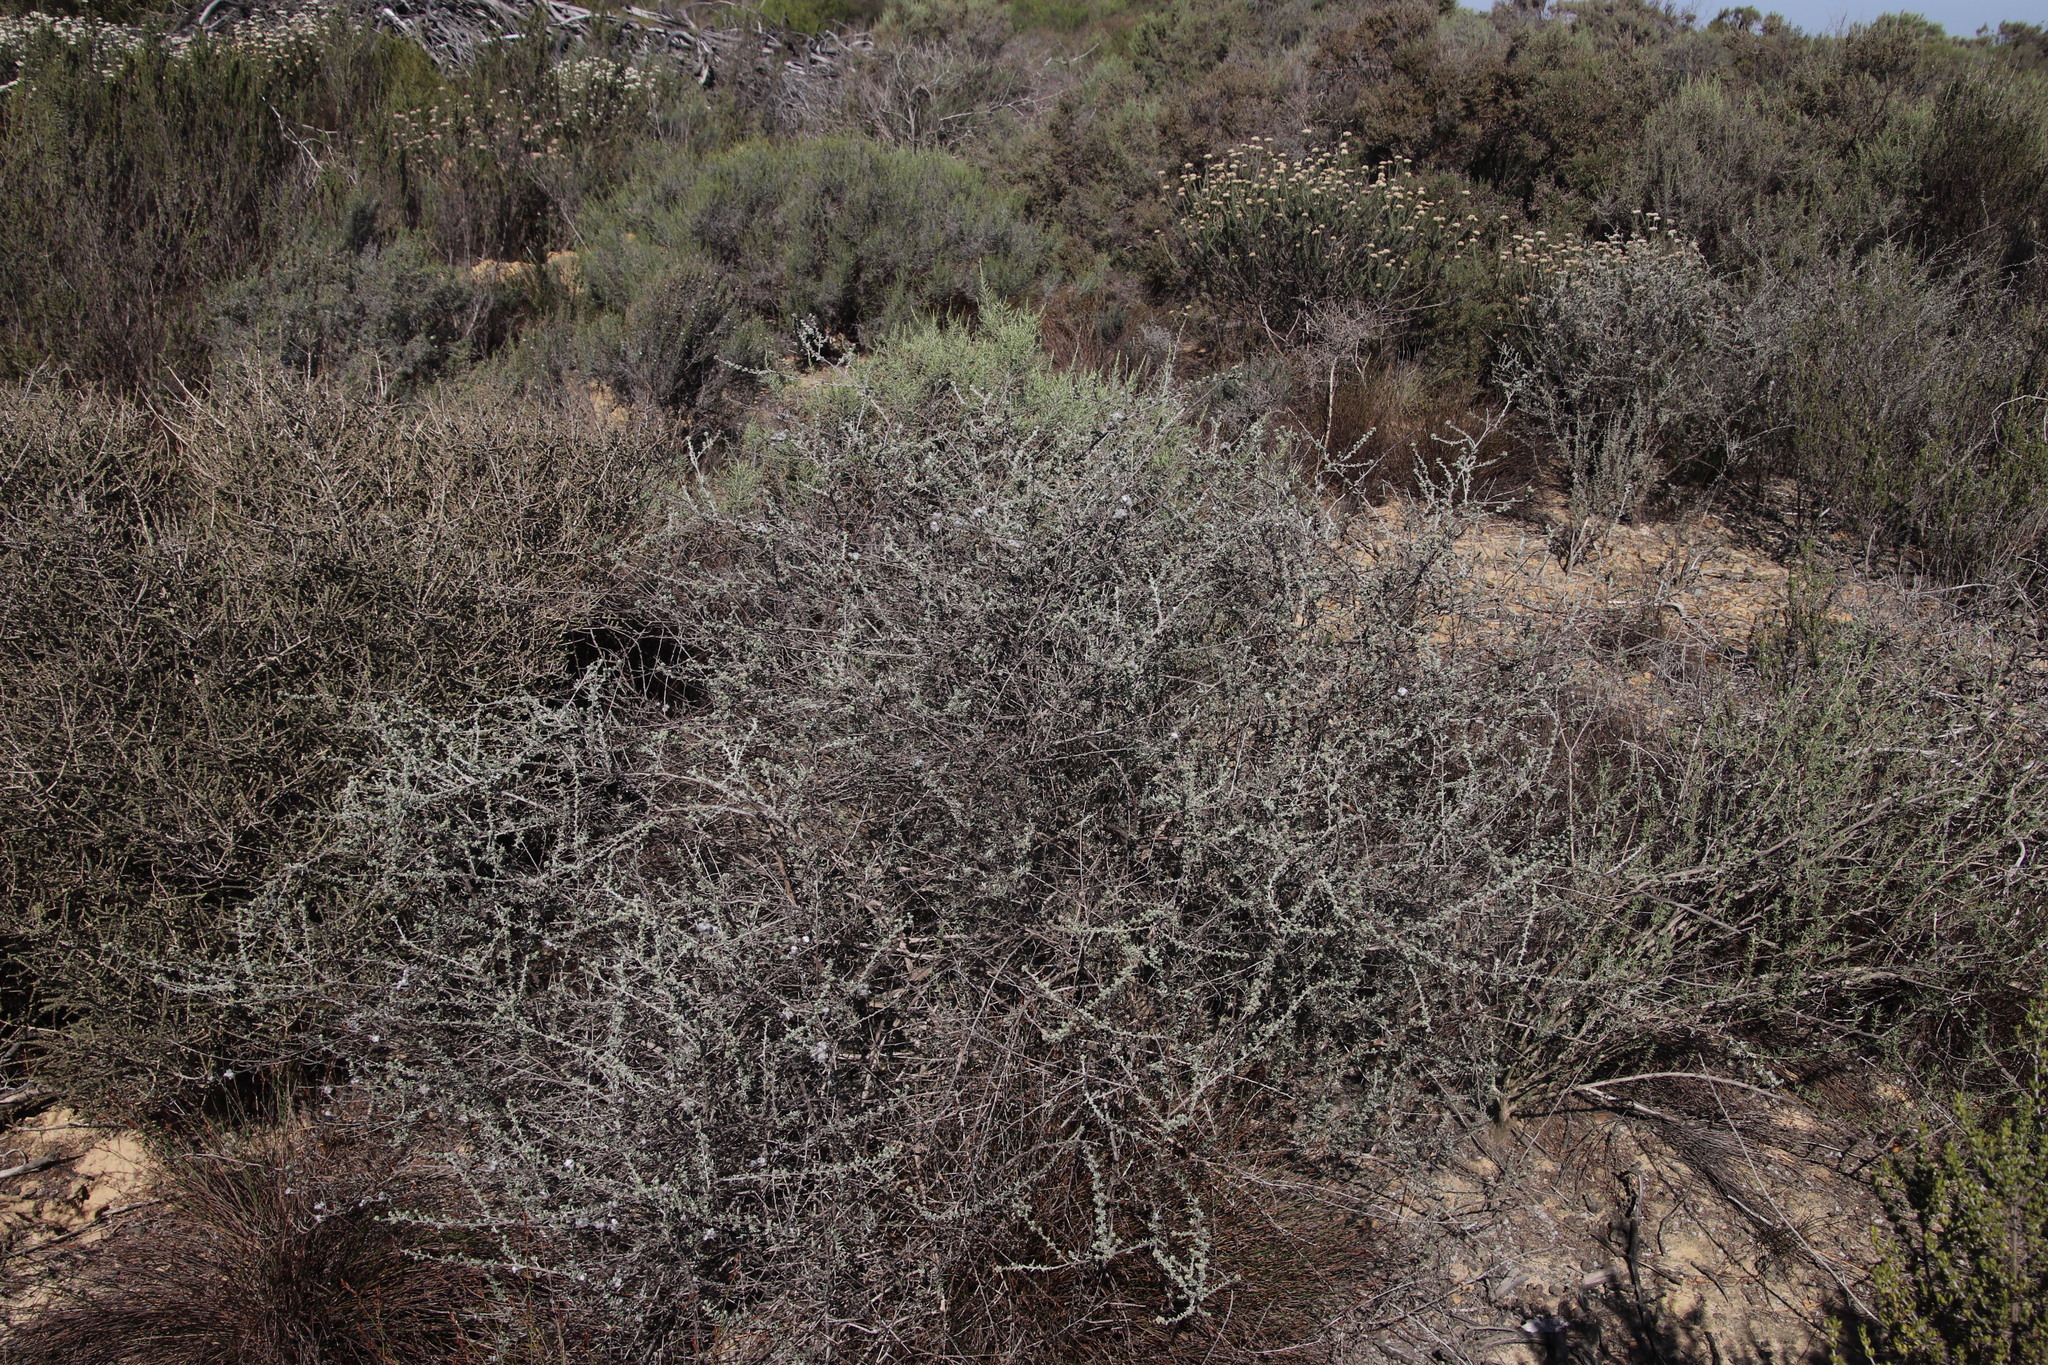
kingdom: Plantae
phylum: Tracheophyta
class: Magnoliopsida
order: Asterales
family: Asteraceae
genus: Eriocephalus
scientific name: Eriocephalus africanus
